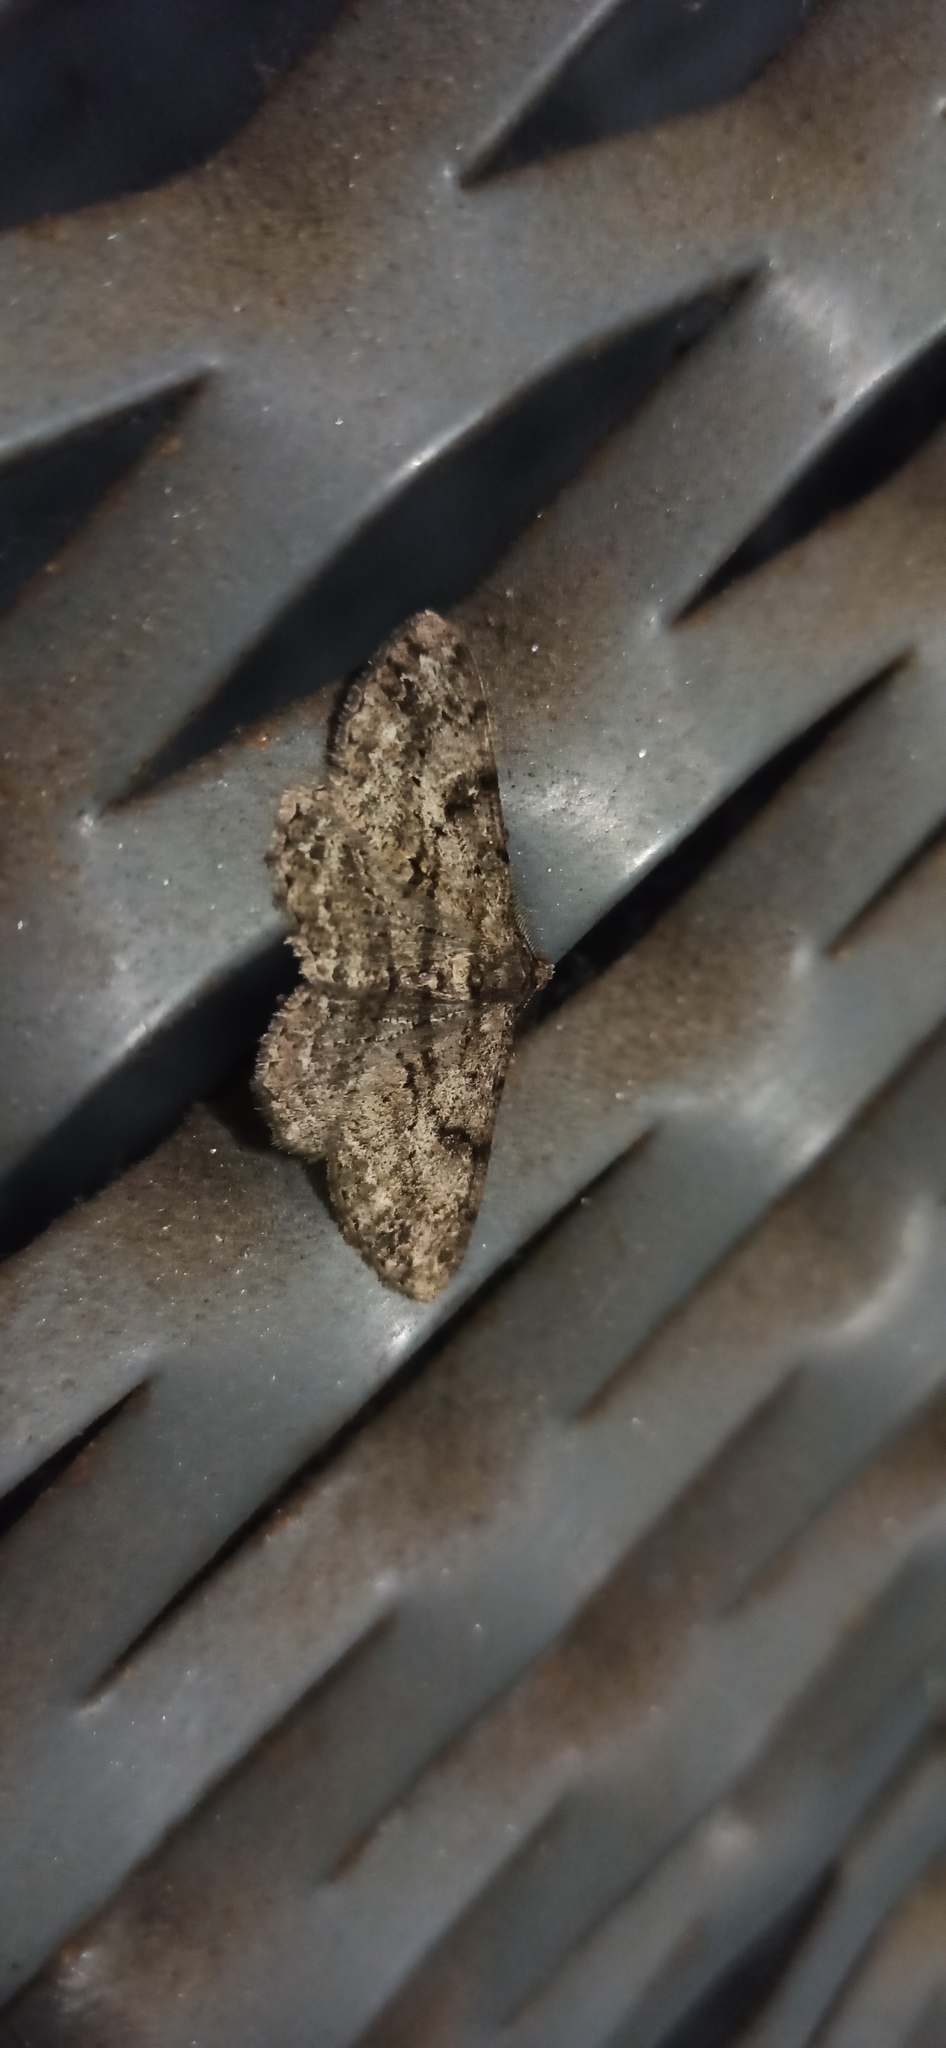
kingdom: Animalia
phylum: Arthropoda
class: Insecta
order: Lepidoptera
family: Geometridae
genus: Peribatodes
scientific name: Peribatodes rhomboidaria
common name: Willow beauty
